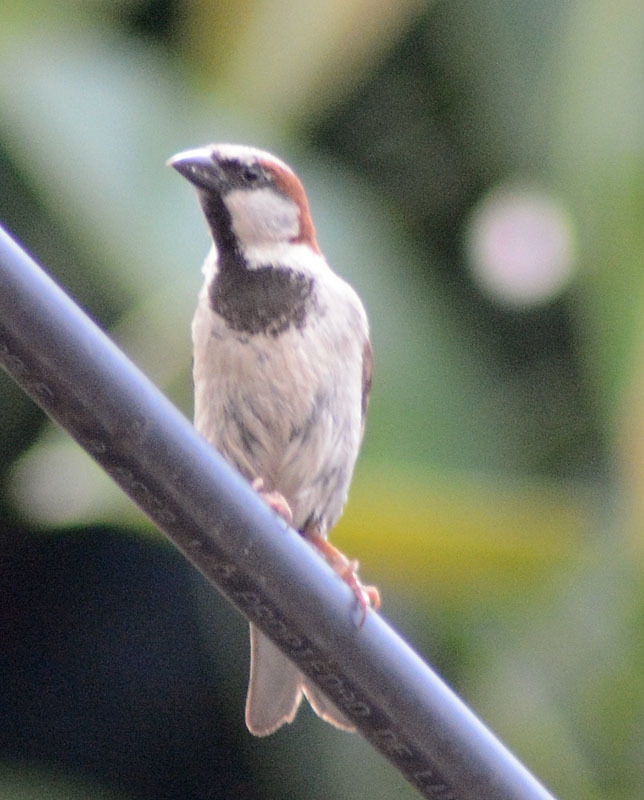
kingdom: Animalia
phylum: Chordata
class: Aves
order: Passeriformes
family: Passeridae
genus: Passer
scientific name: Passer domesticus
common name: House sparrow
